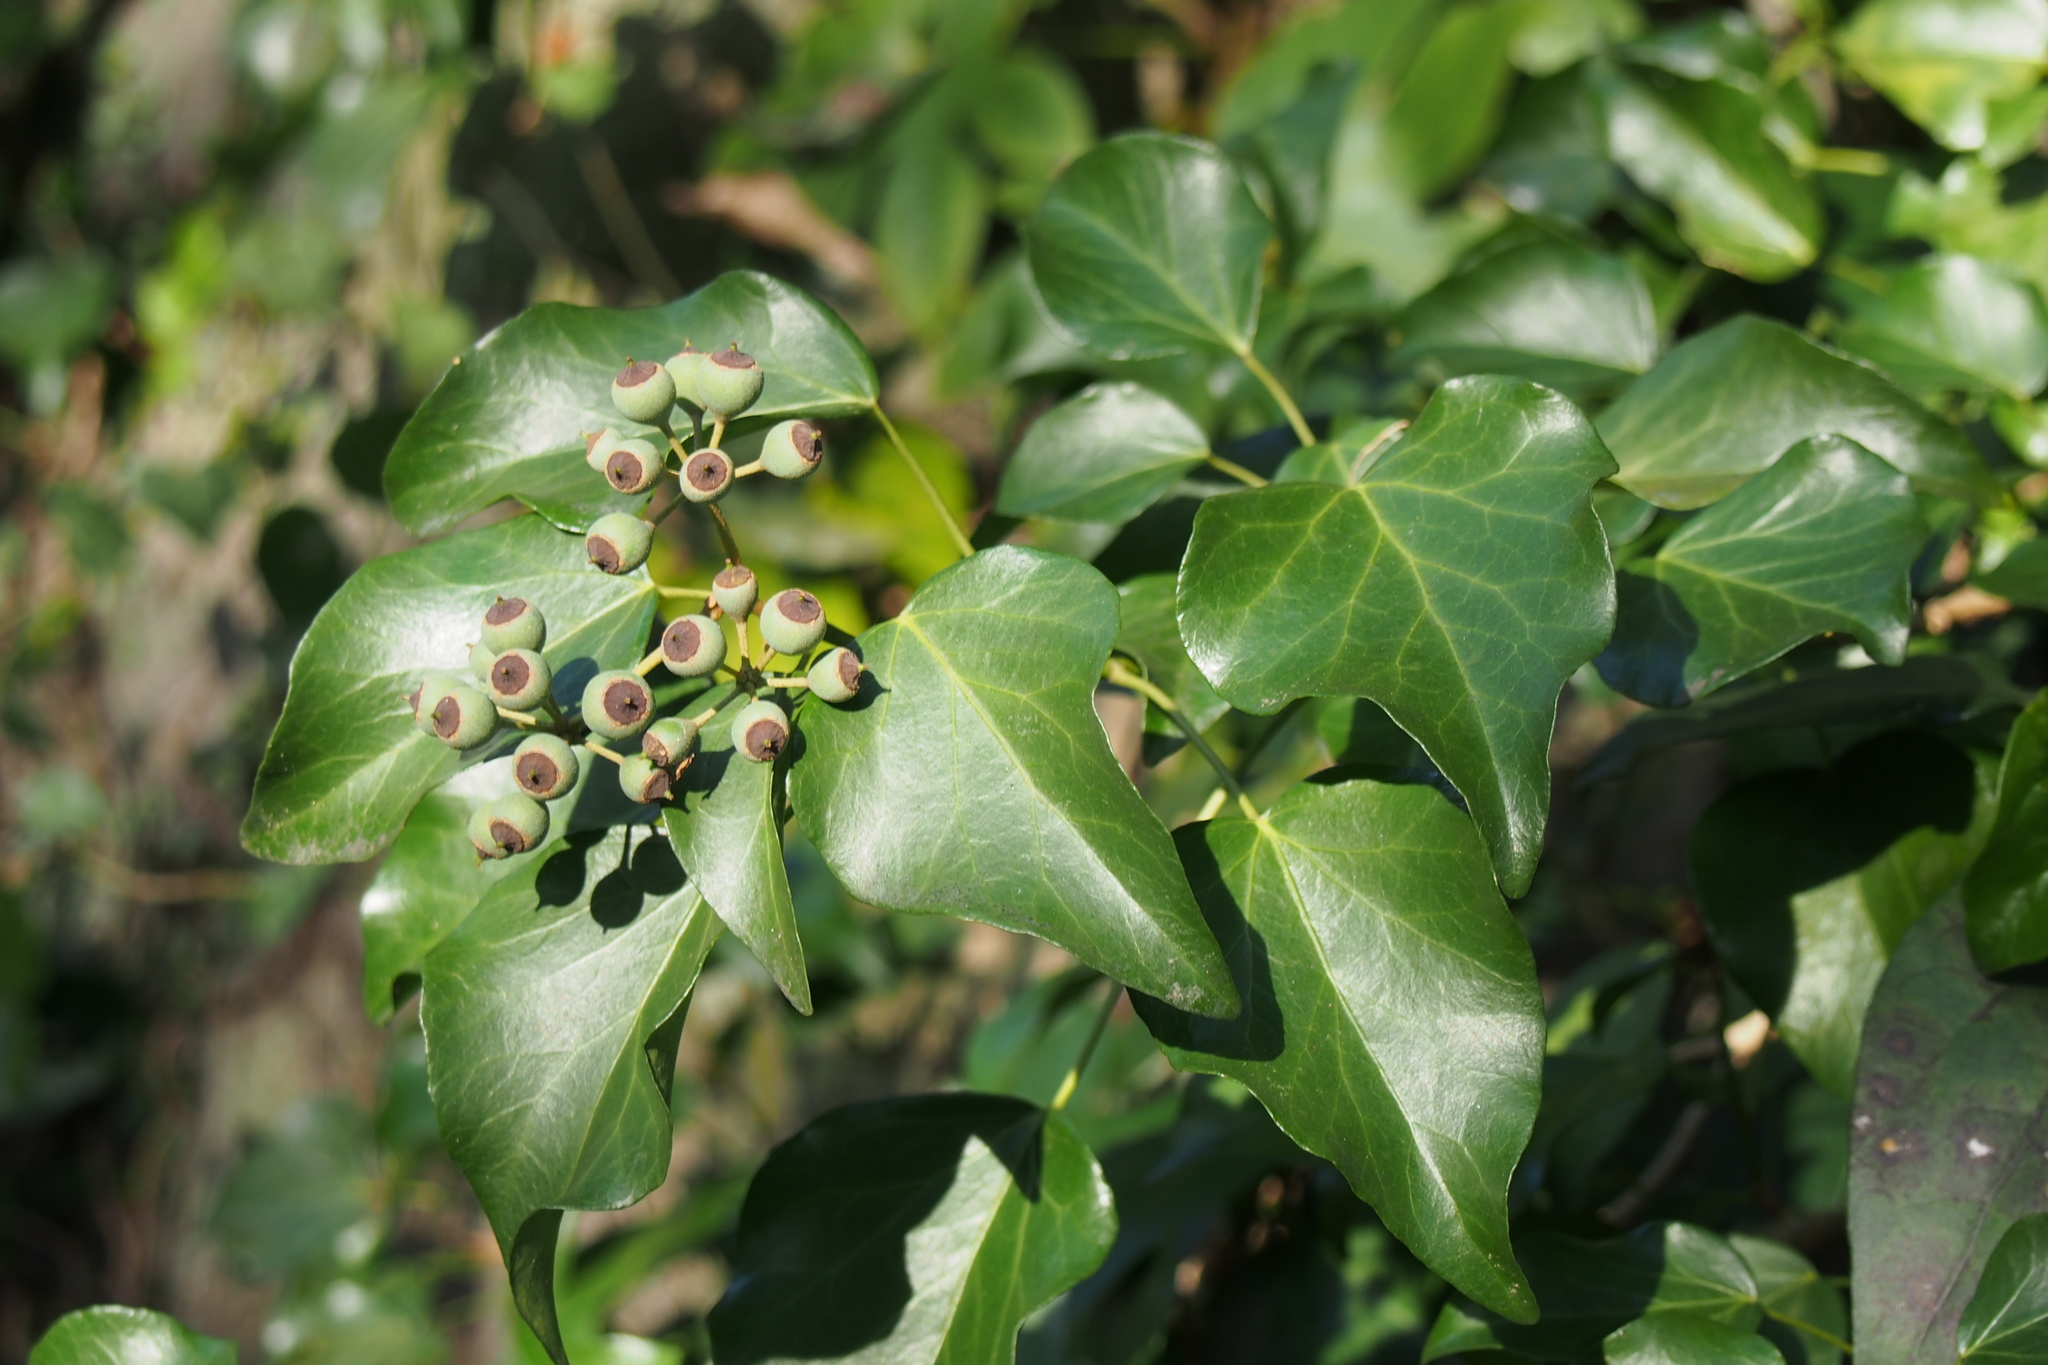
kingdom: Plantae
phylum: Tracheophyta
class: Magnoliopsida
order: Apiales
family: Araliaceae
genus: Hedera
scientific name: Hedera rhombea
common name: Japanese ivy
